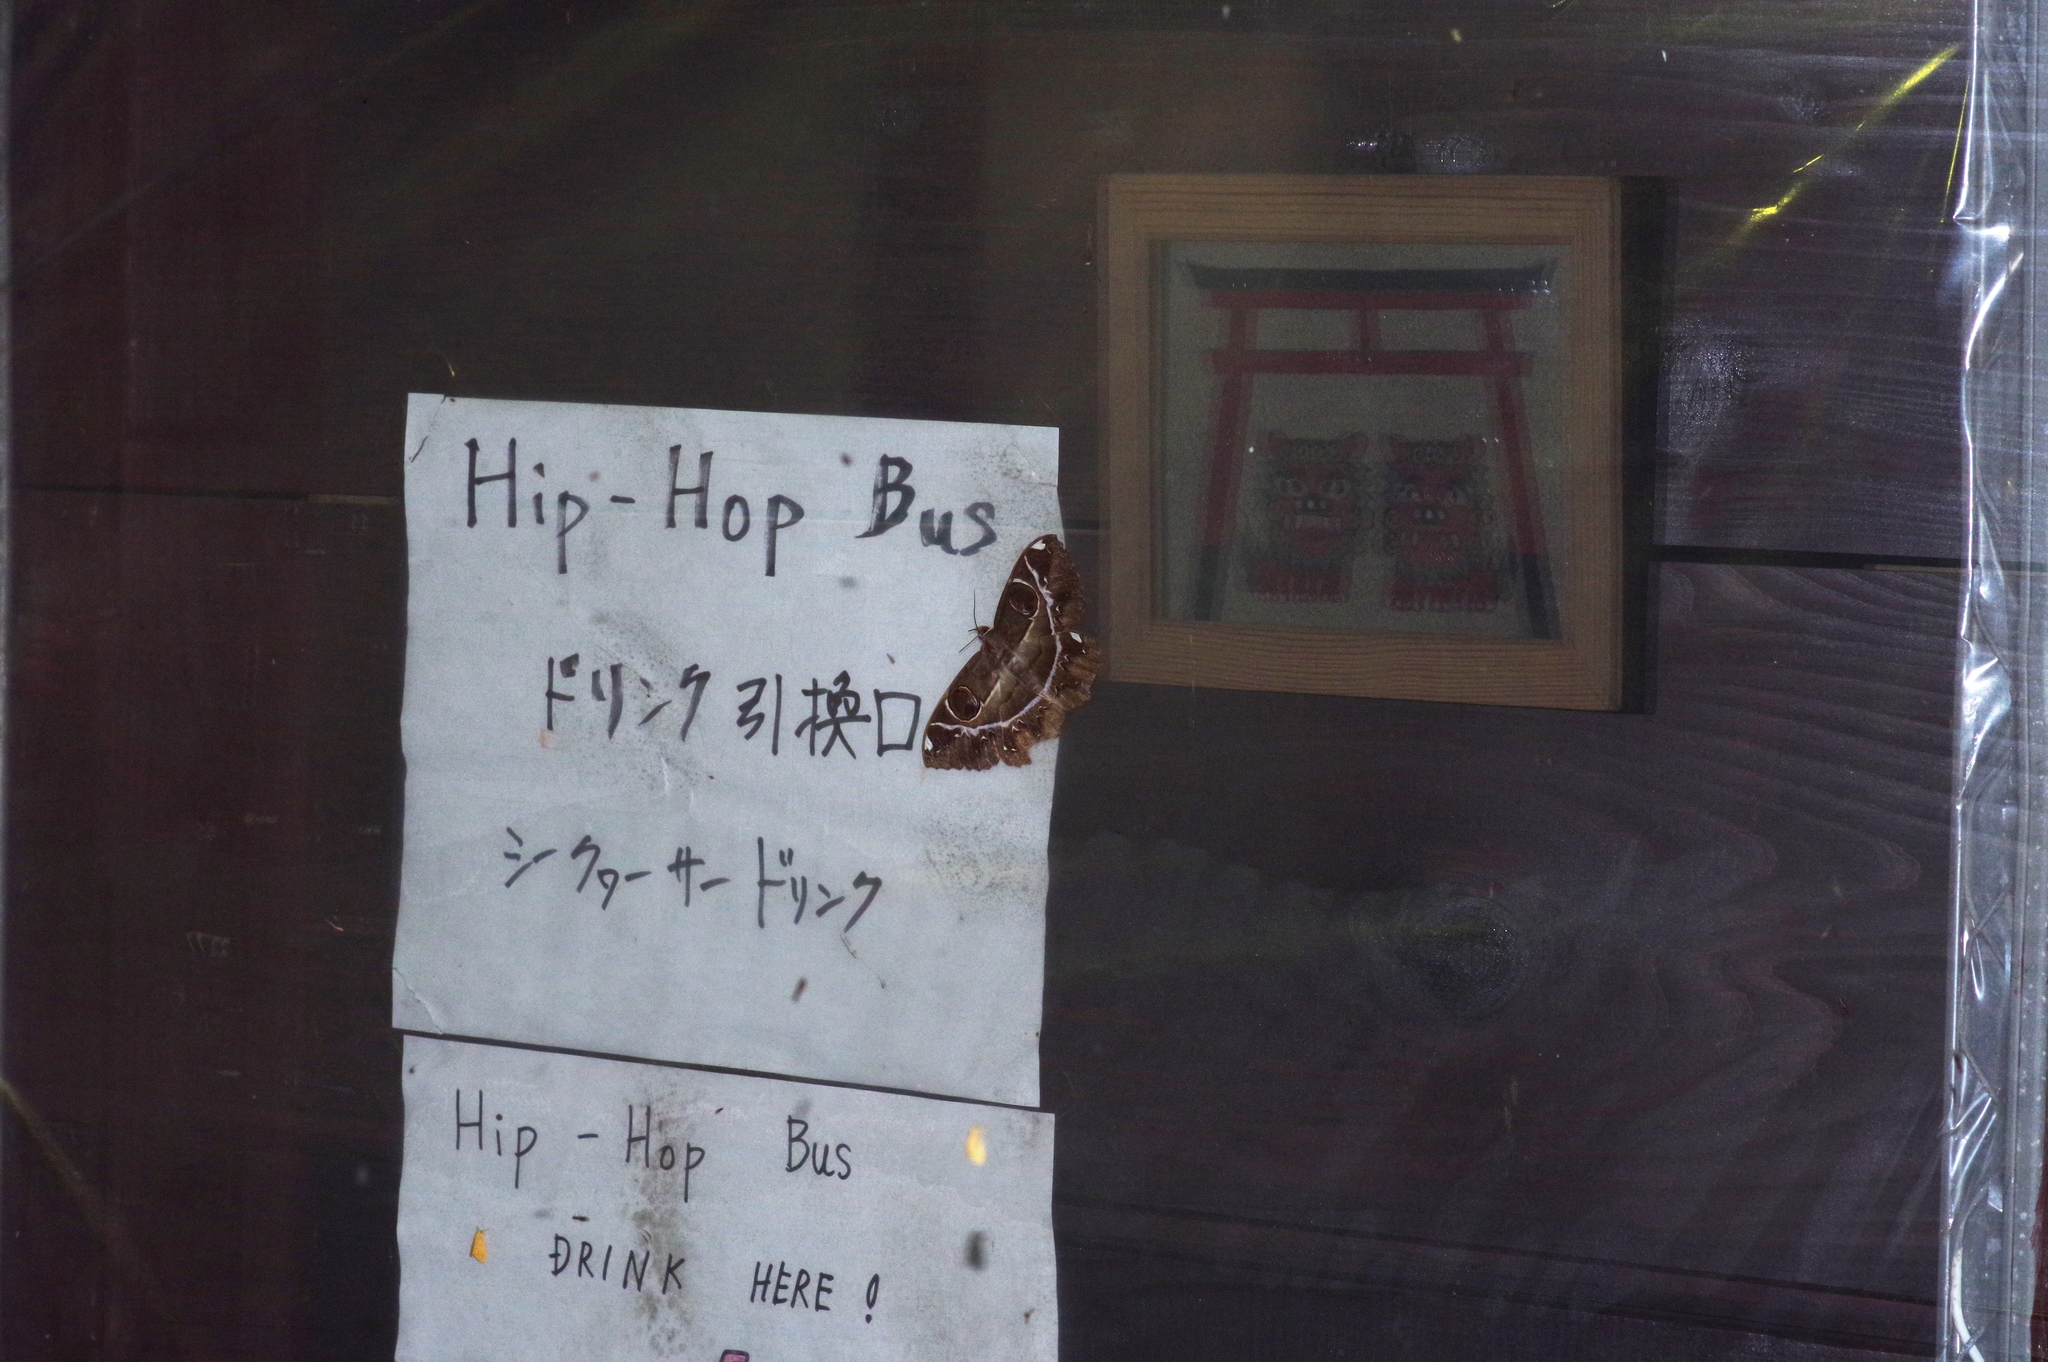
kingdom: Animalia
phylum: Arthropoda
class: Insecta
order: Lepidoptera
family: Erebidae
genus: Erebus
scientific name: Erebus ephesperis
